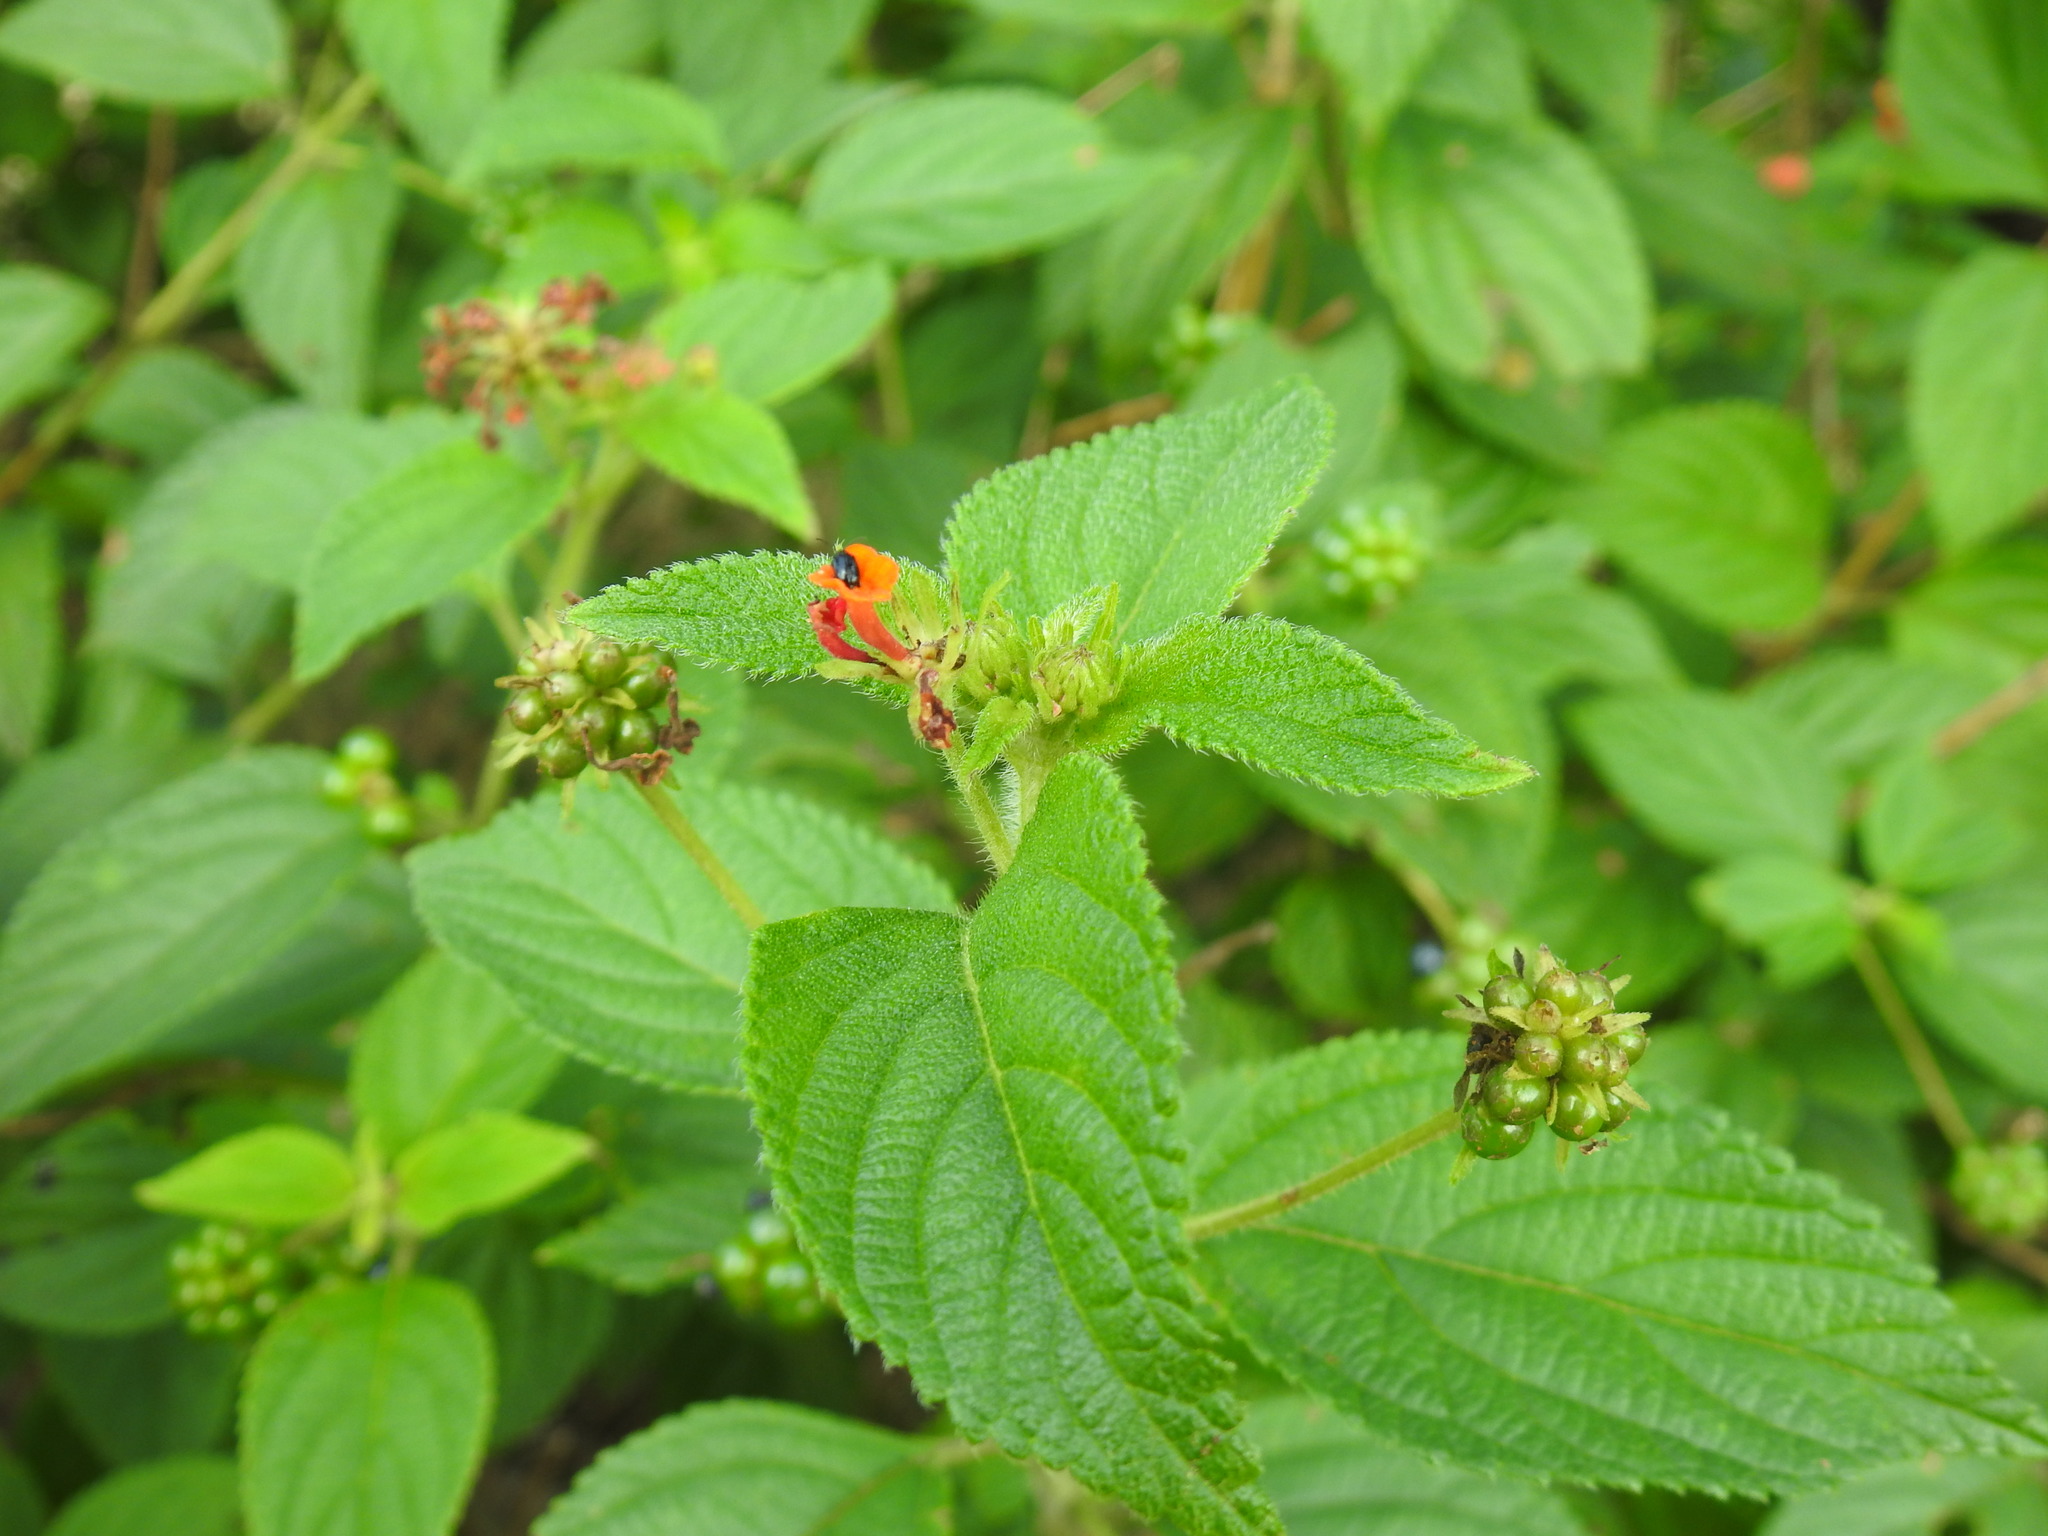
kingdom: Plantae
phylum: Tracheophyta
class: Magnoliopsida
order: Lamiales
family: Verbenaceae
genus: Lantana
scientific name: Lantana camara
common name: Lantana
